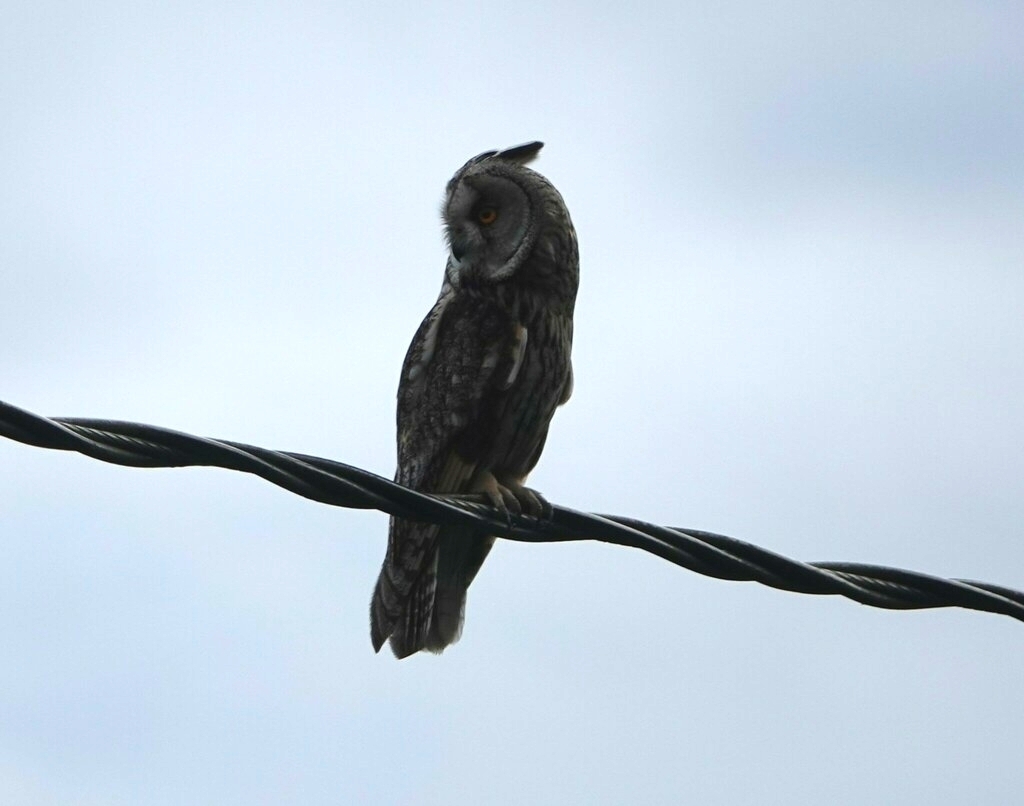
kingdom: Animalia
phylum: Chordata
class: Aves
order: Strigiformes
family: Strigidae
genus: Asio
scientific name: Asio otus
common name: Long-eared owl
